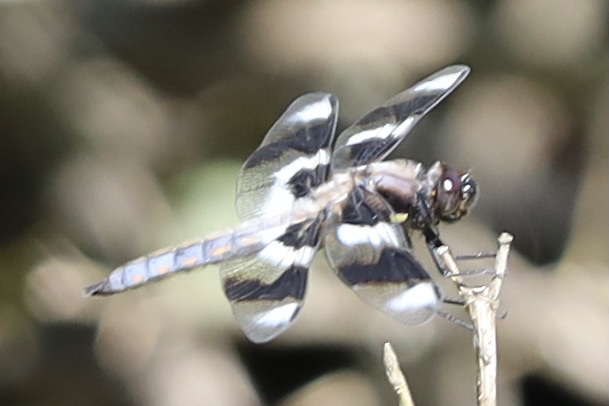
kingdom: Animalia
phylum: Arthropoda
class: Insecta
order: Odonata
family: Libellulidae
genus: Libellula
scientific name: Libellula forensis
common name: Eight-spotted skimmer
